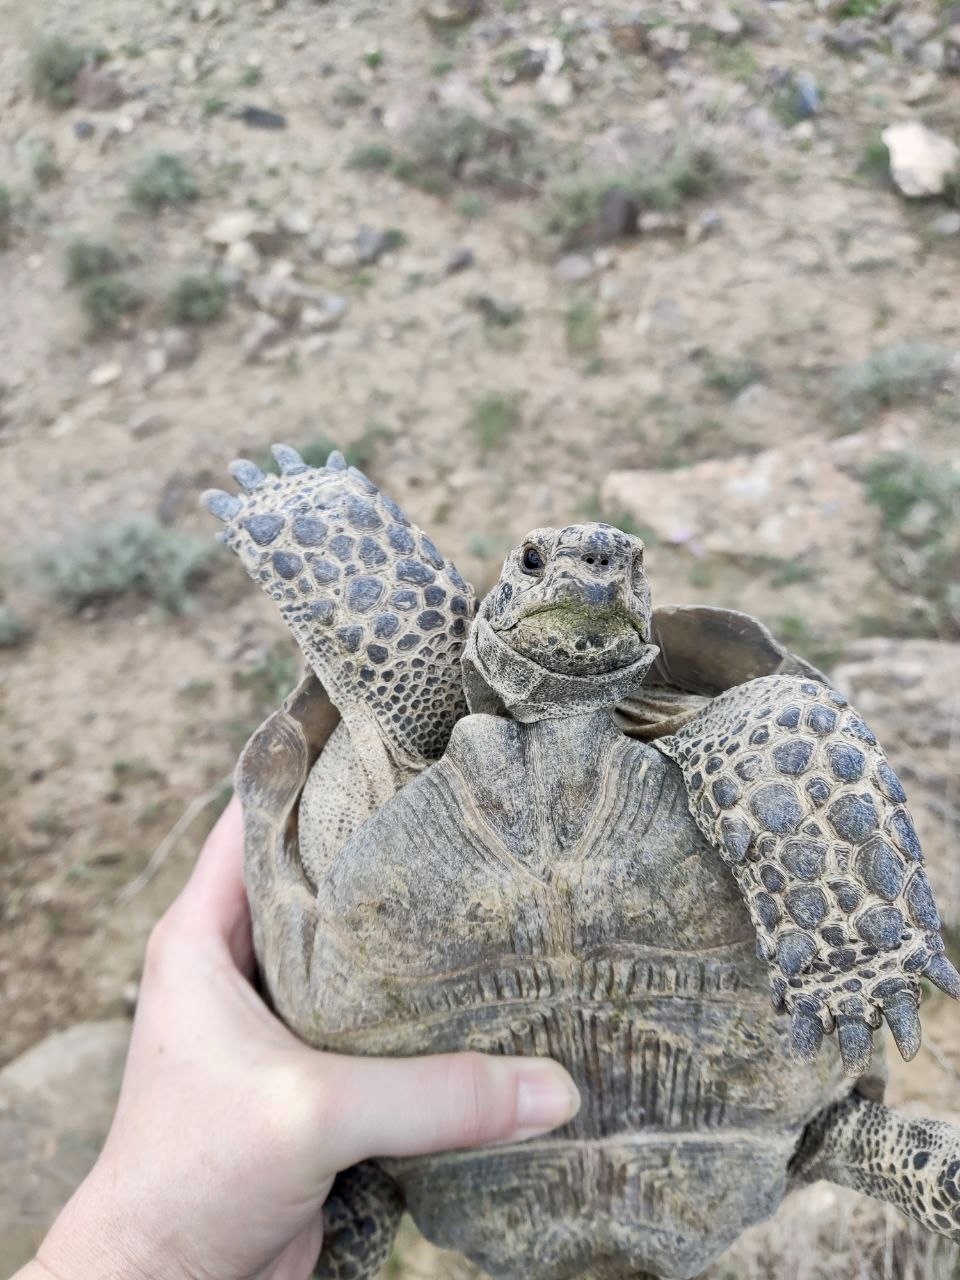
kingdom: Animalia
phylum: Chordata
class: Testudines
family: Testudinidae
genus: Testudo
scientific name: Testudo graeca
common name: Common tortoise
